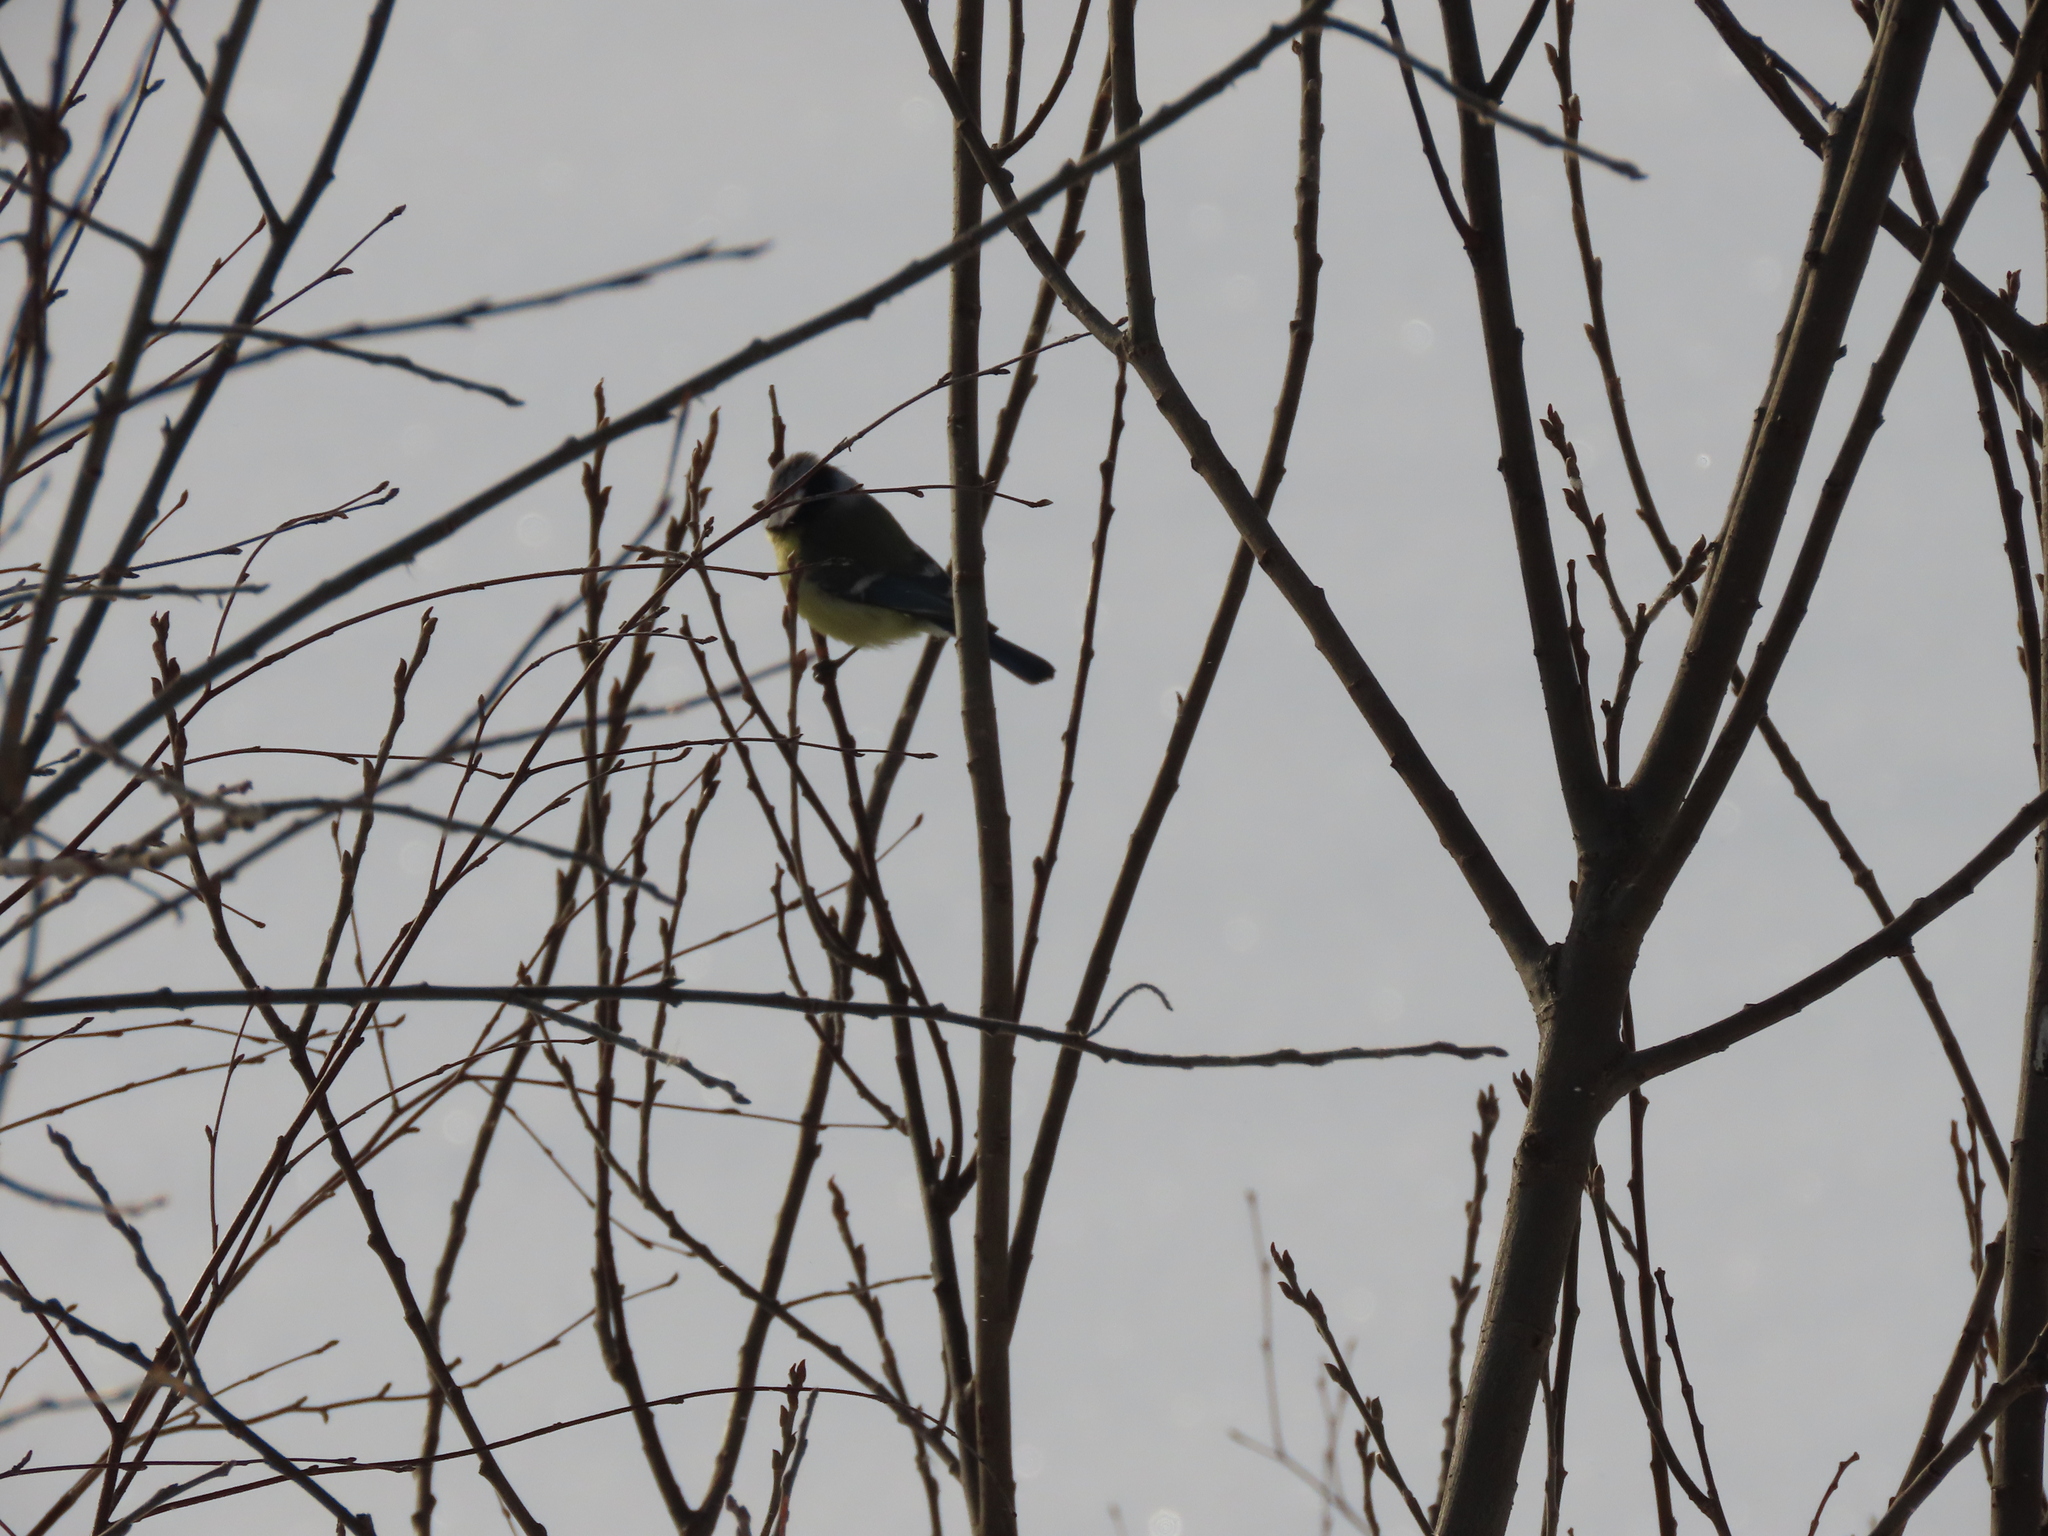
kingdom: Animalia
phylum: Chordata
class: Aves
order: Passeriformes
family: Paridae
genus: Cyanistes
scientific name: Cyanistes caeruleus
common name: Eurasian blue tit
